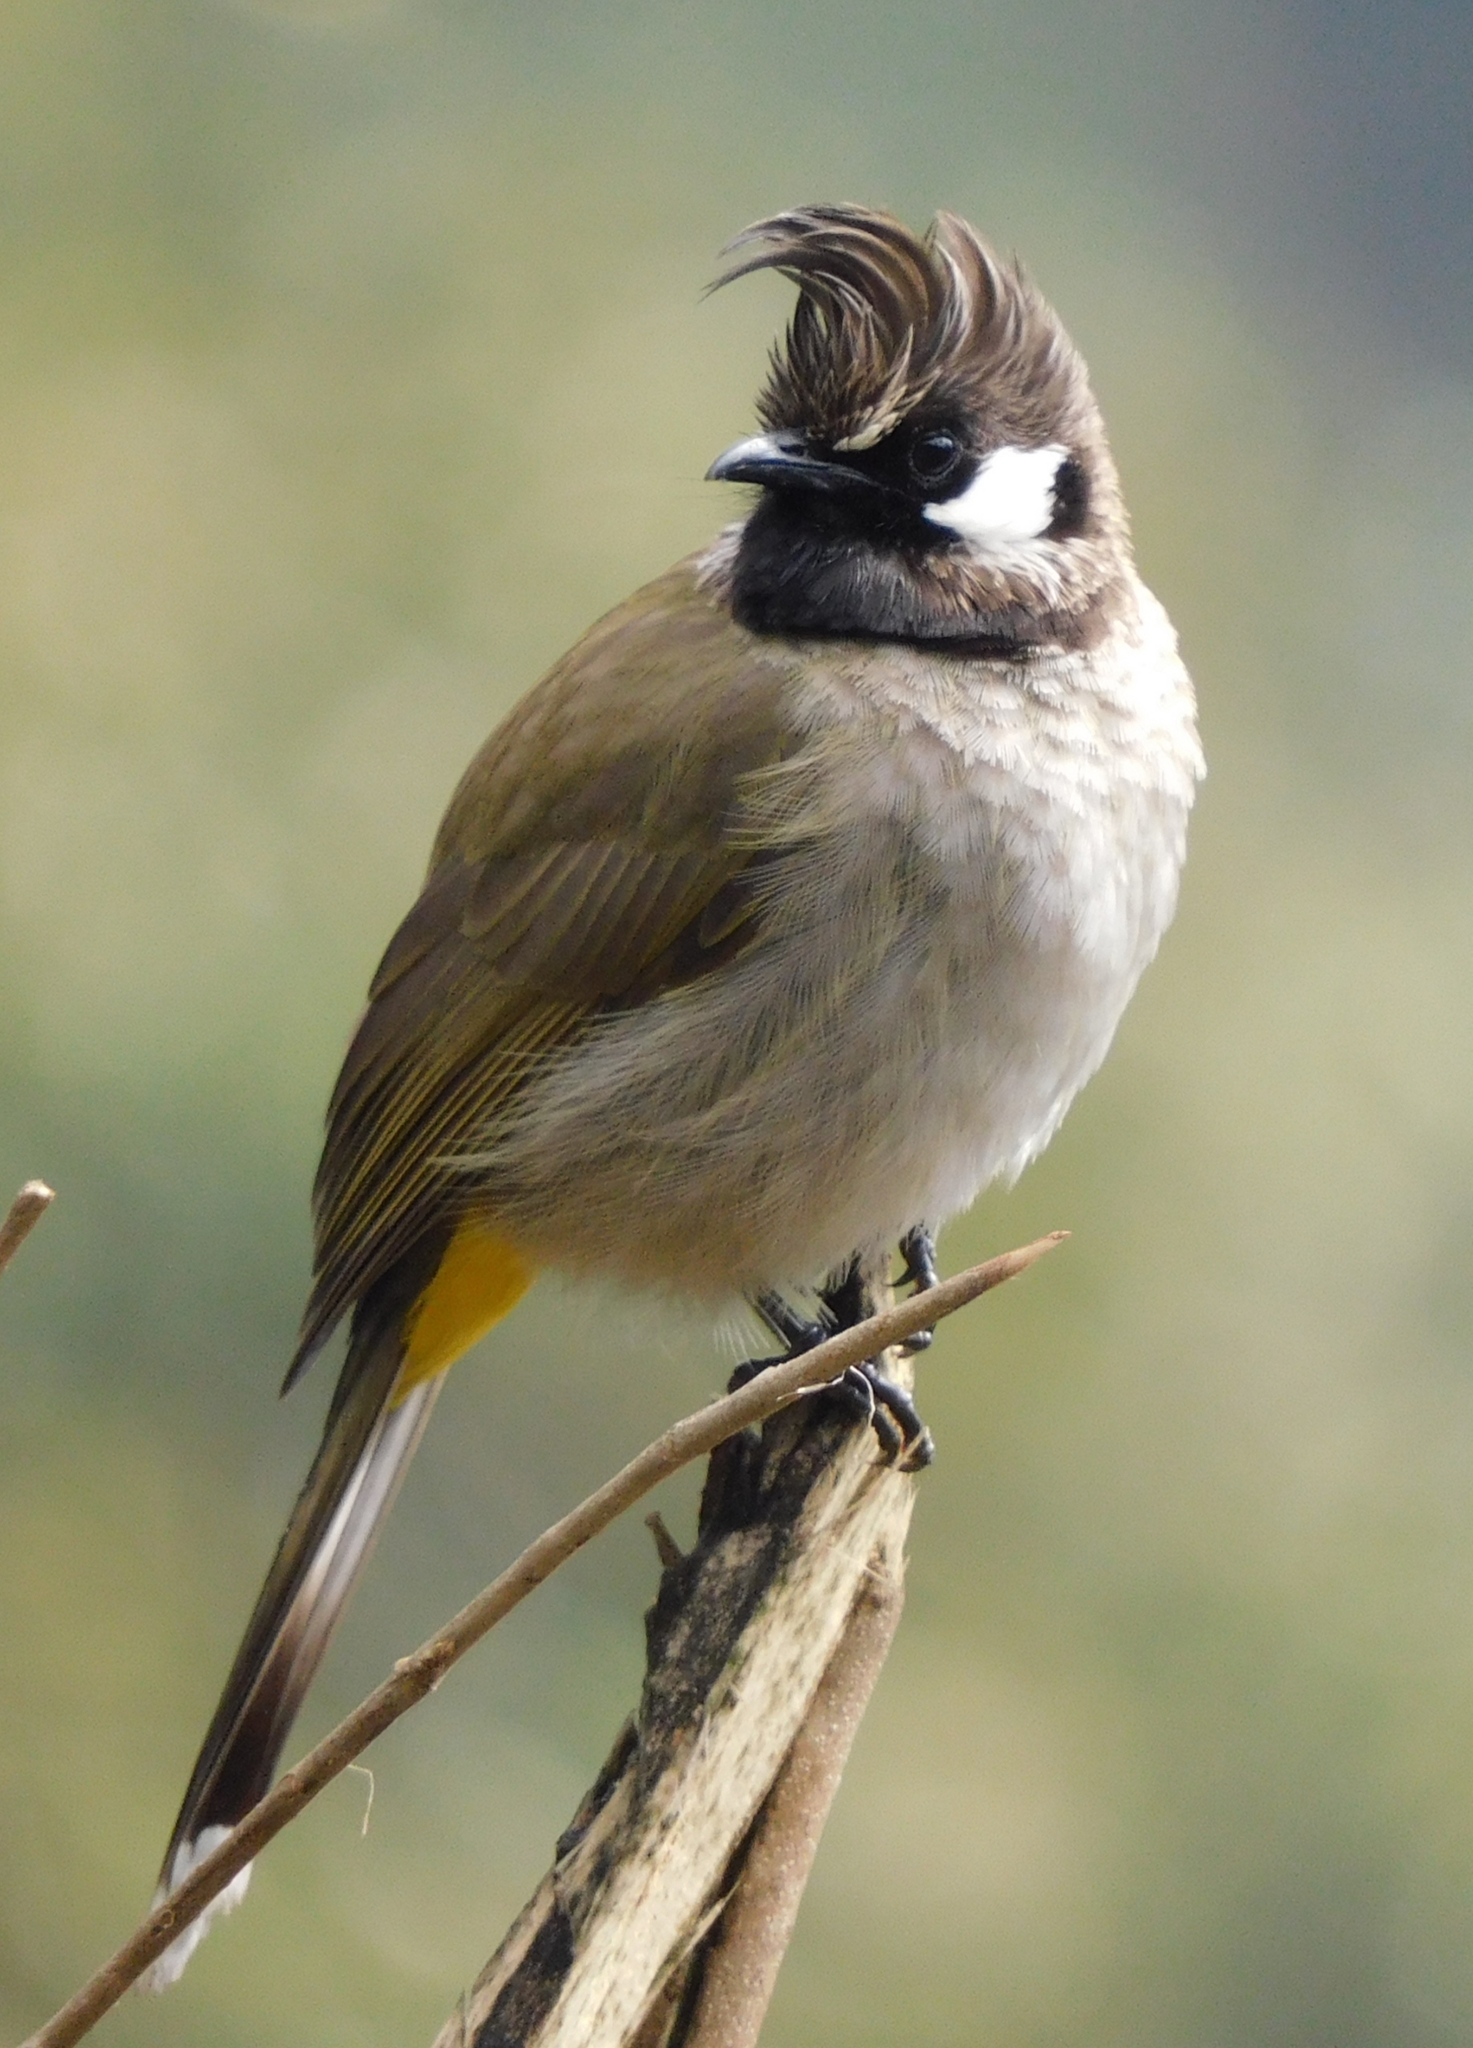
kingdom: Animalia
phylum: Chordata
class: Aves
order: Passeriformes
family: Pycnonotidae
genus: Pycnonotus
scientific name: Pycnonotus leucogenys
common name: Himalayan bulbul
